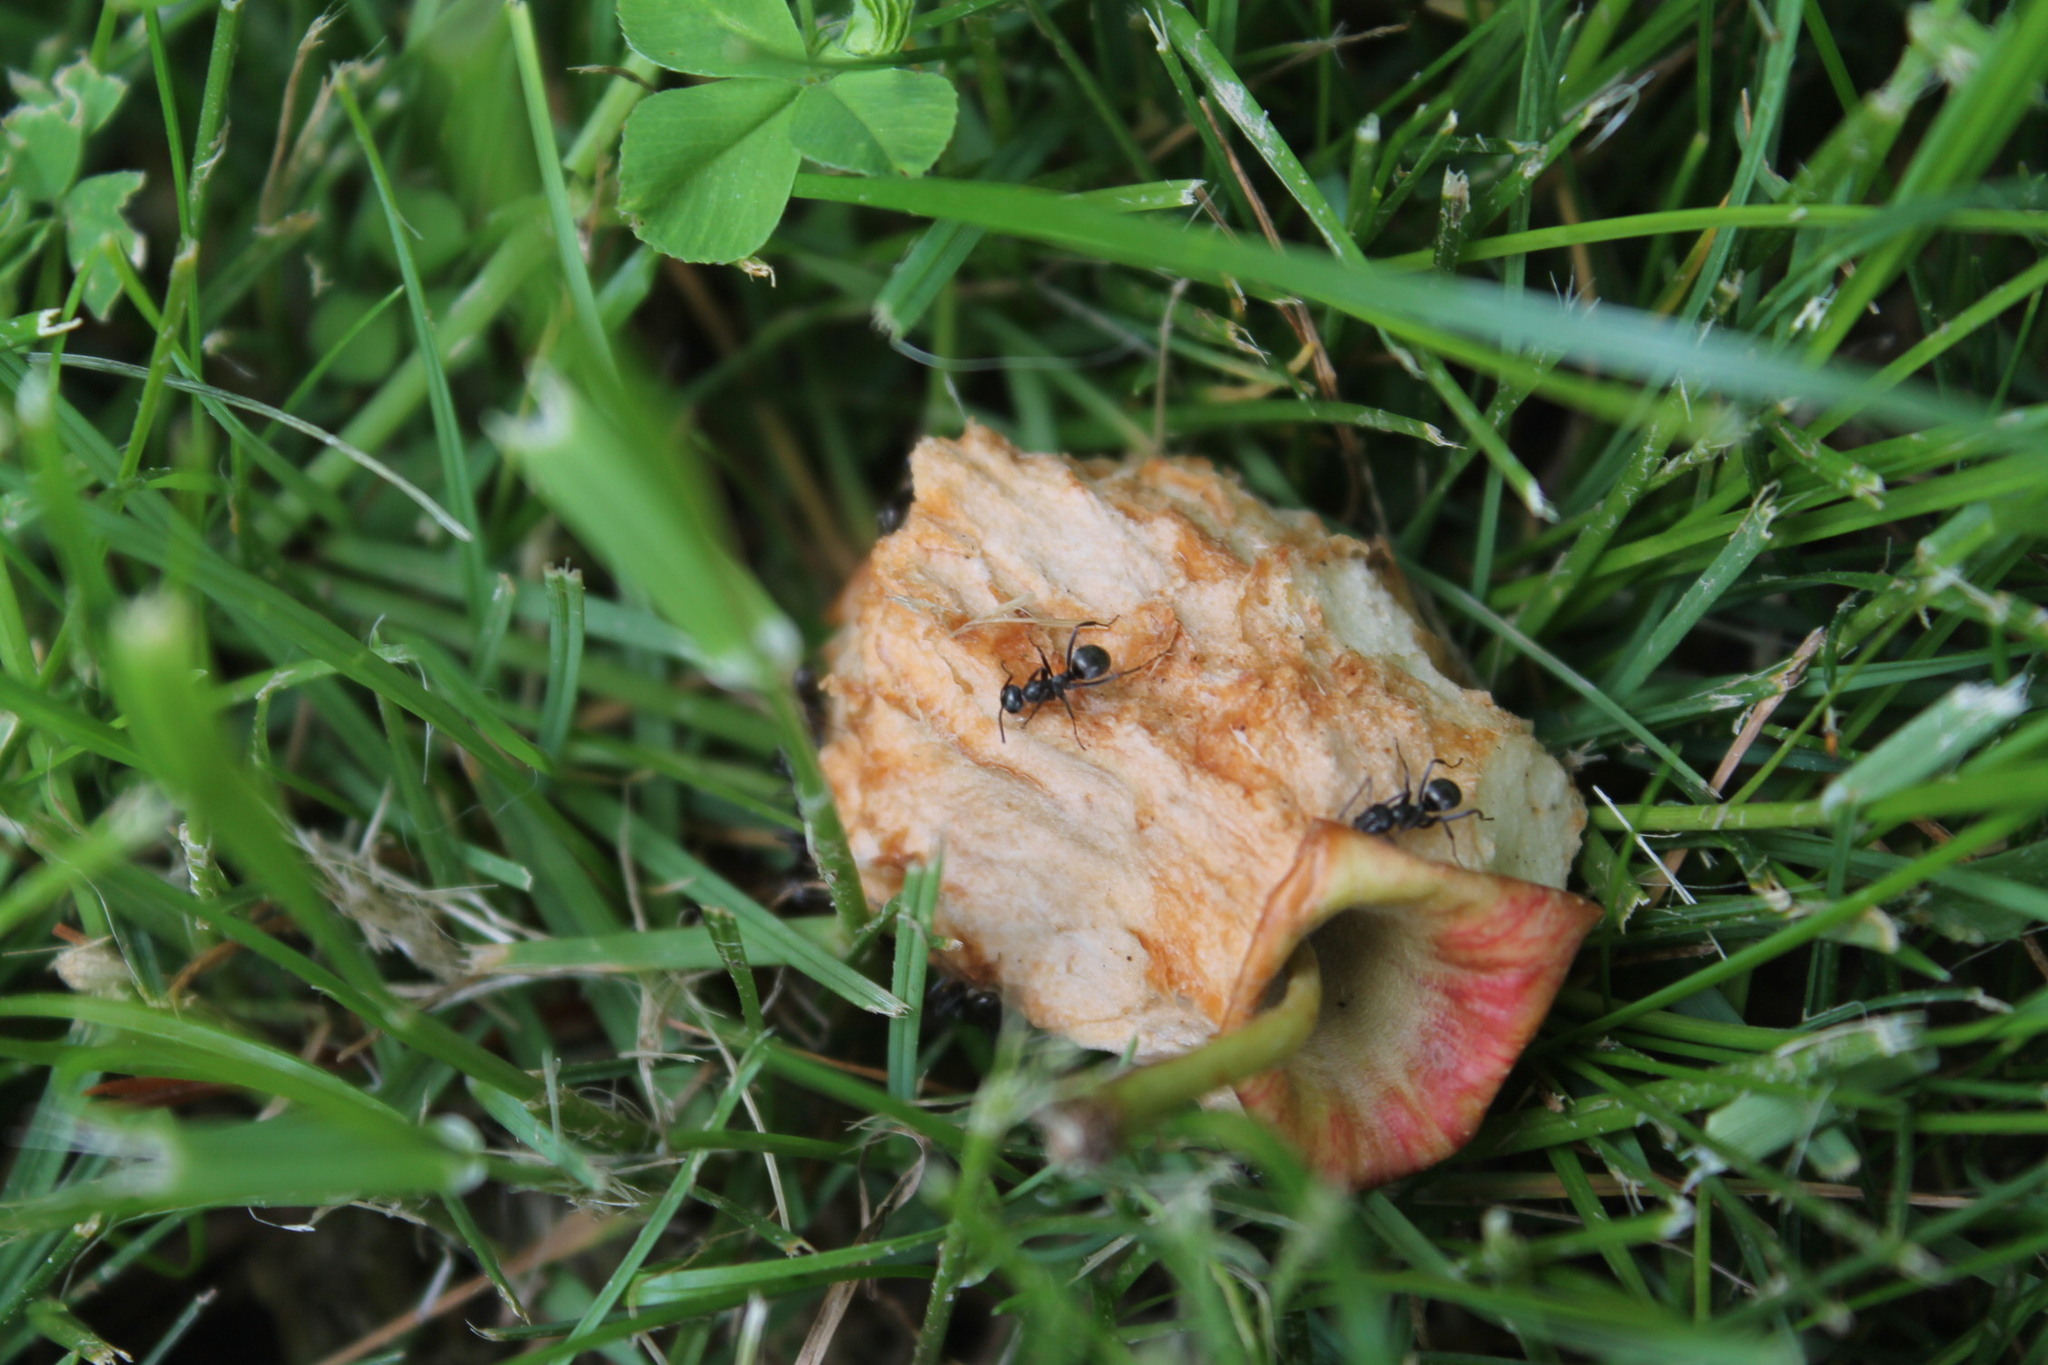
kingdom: Animalia
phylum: Arthropoda
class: Insecta
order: Hymenoptera
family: Formicidae
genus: Formica
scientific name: Formica subsericea
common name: Silky field ant
